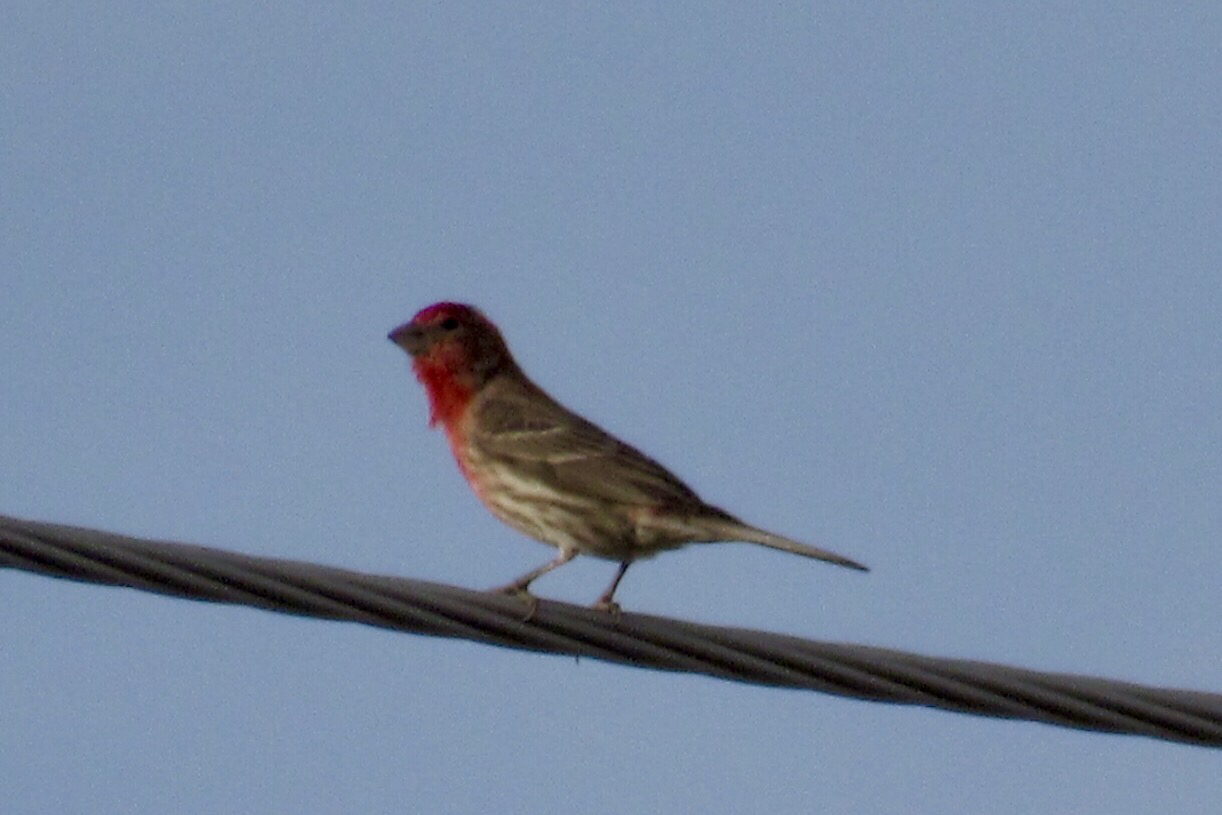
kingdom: Animalia
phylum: Chordata
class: Aves
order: Passeriformes
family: Fringillidae
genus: Haemorhous
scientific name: Haemorhous mexicanus
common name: House finch
